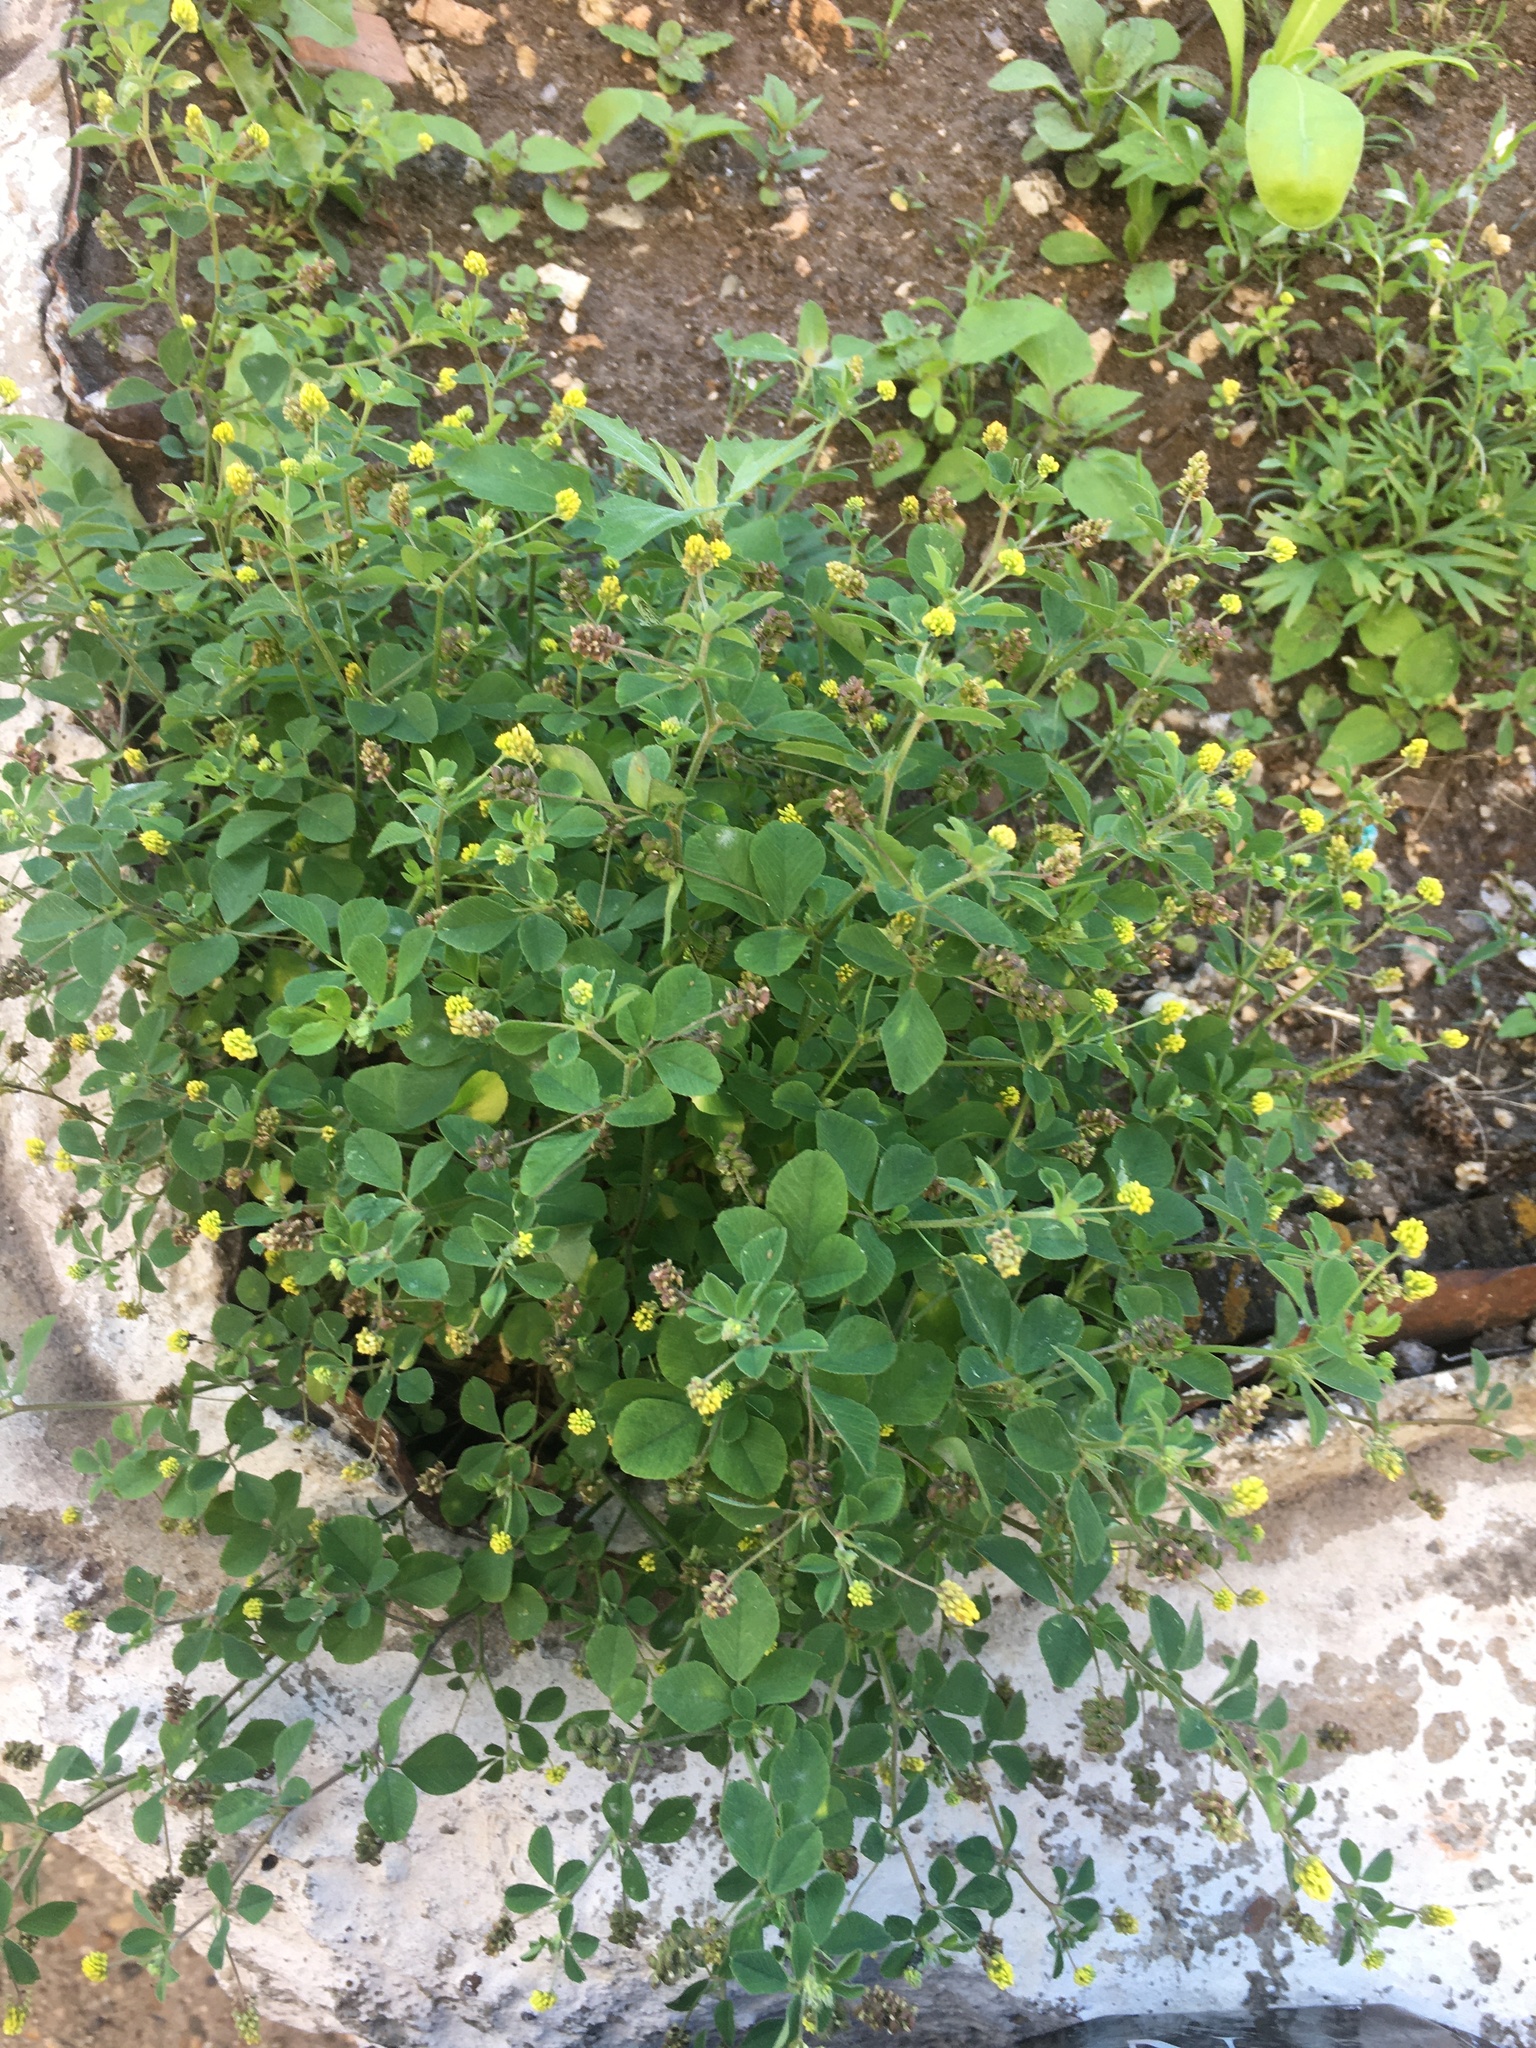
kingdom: Plantae
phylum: Tracheophyta
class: Magnoliopsida
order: Fabales
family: Fabaceae
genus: Medicago
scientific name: Medicago lupulina
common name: Black medick
